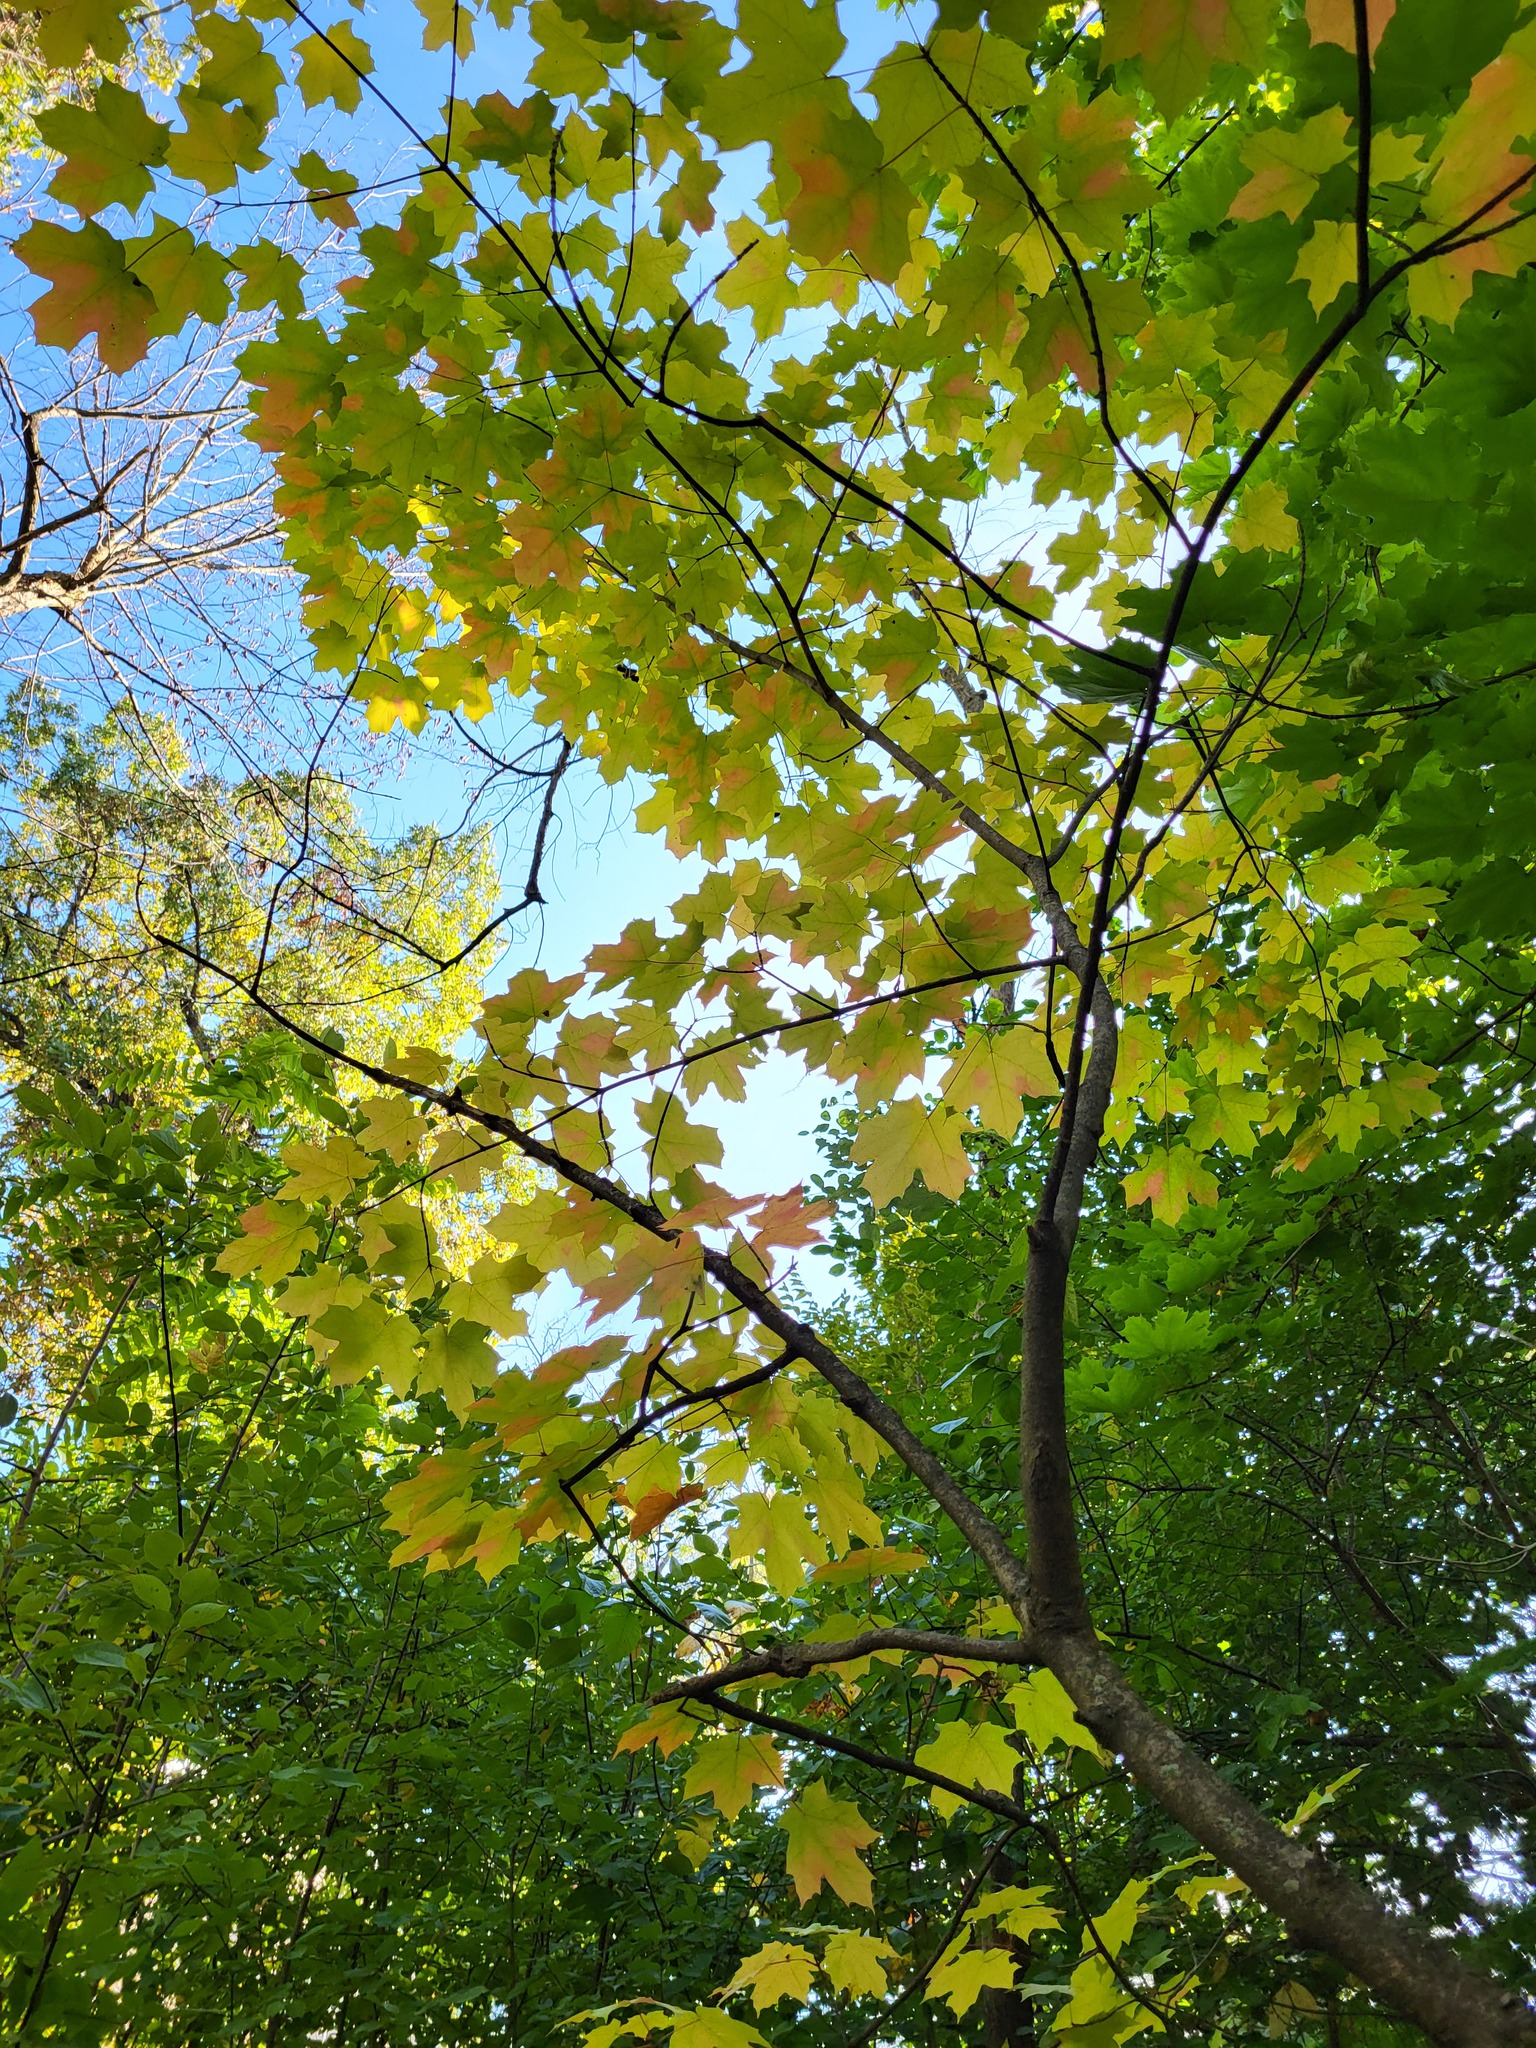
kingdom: Plantae
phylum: Tracheophyta
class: Magnoliopsida
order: Sapindales
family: Sapindaceae
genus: Acer
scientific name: Acer saccharum
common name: Sugar maple
